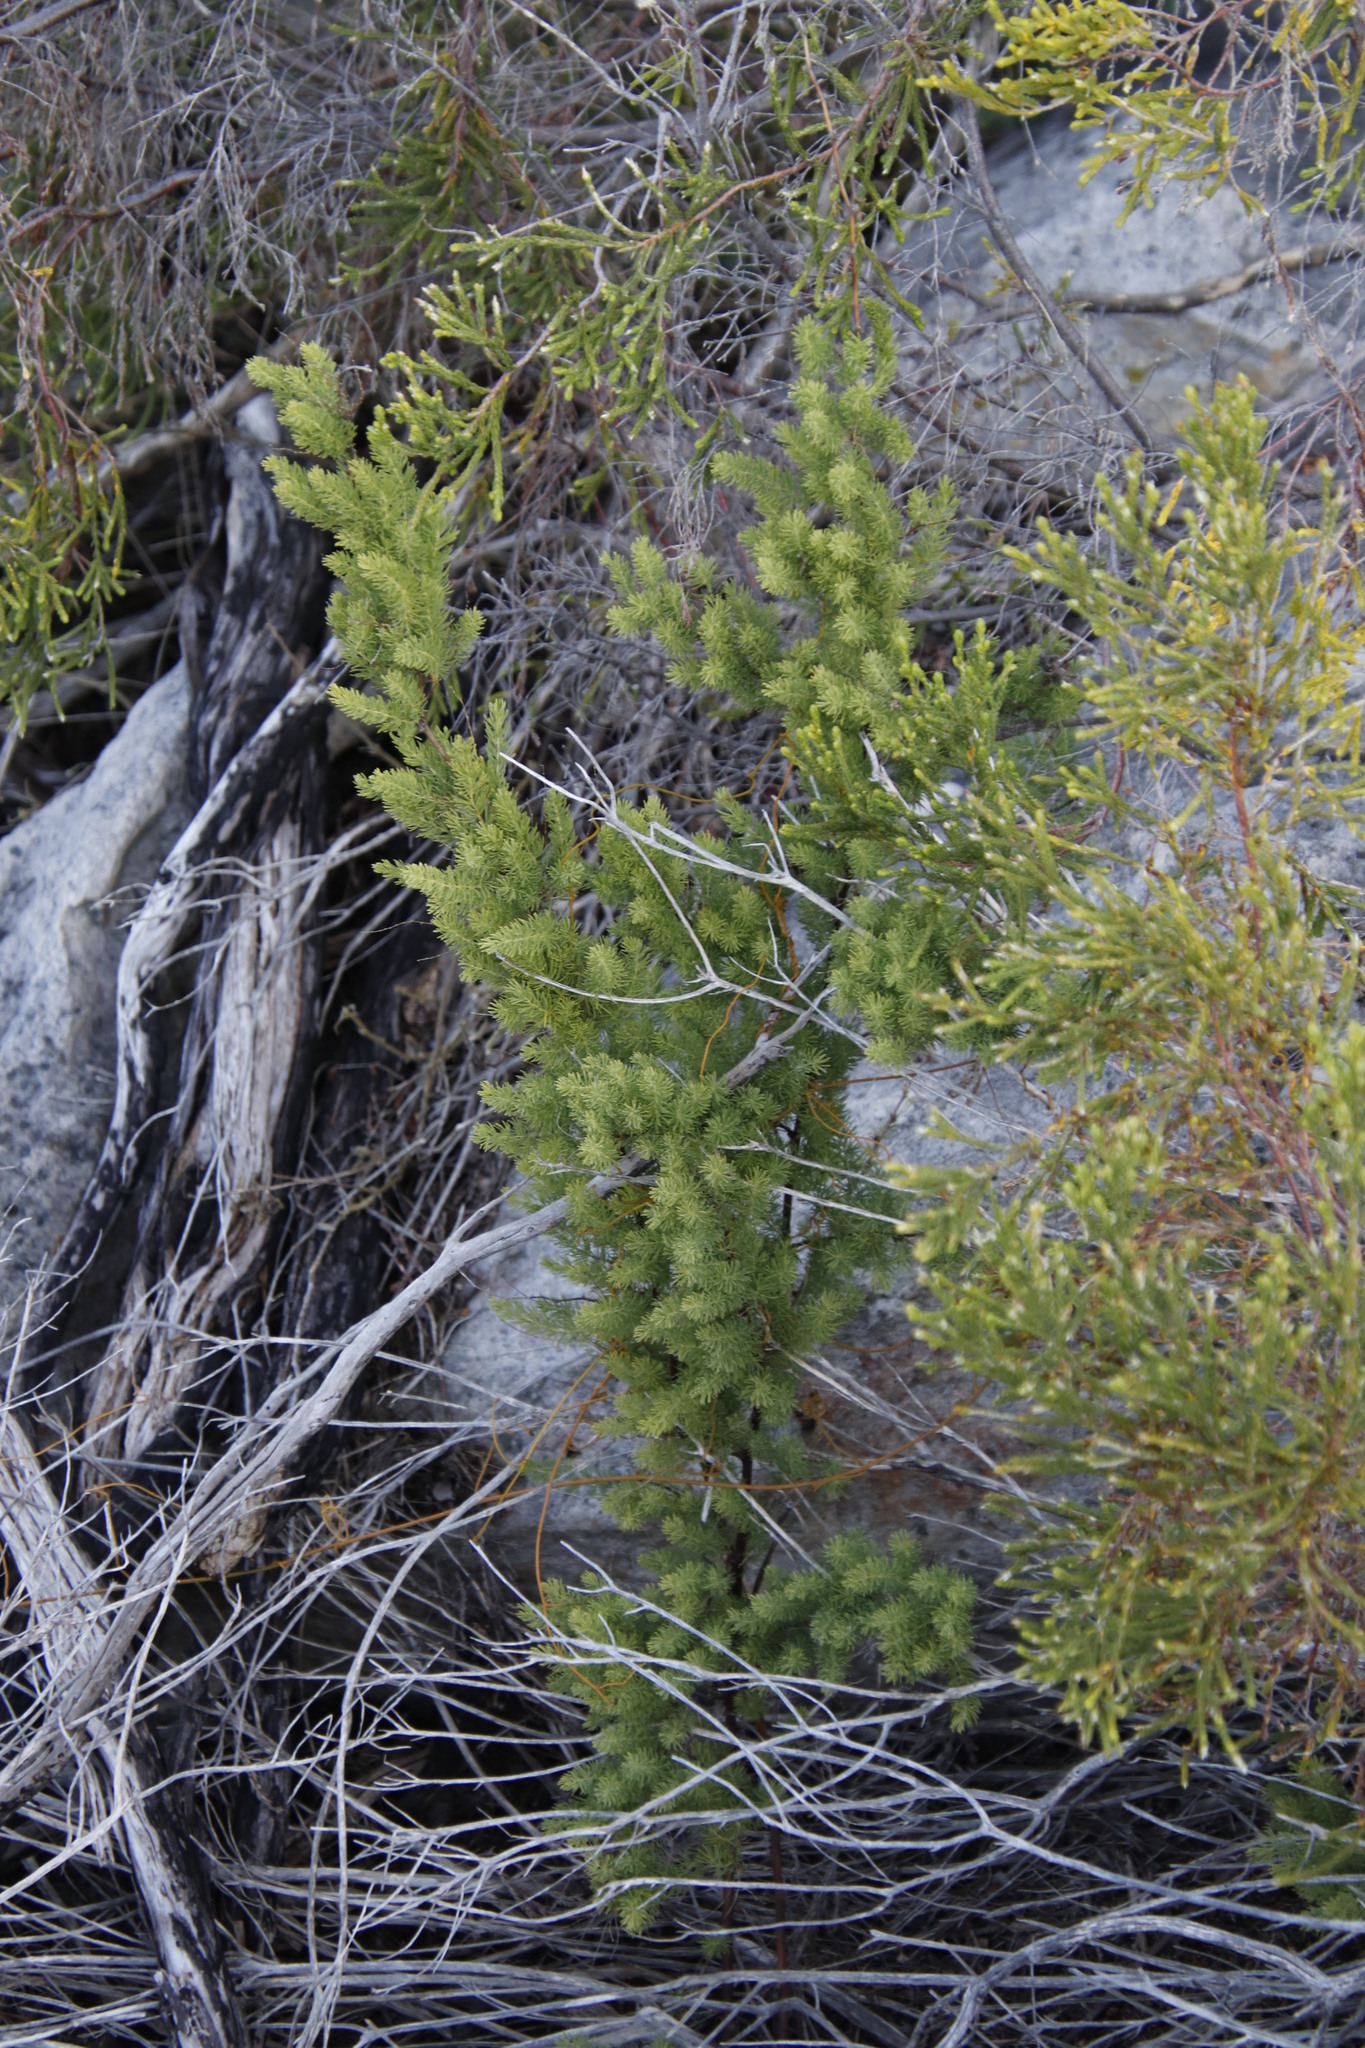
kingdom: Plantae
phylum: Tracheophyta
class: Liliopsida
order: Asparagales
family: Asparagaceae
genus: Asparagus
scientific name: Asparagus rubicundus
